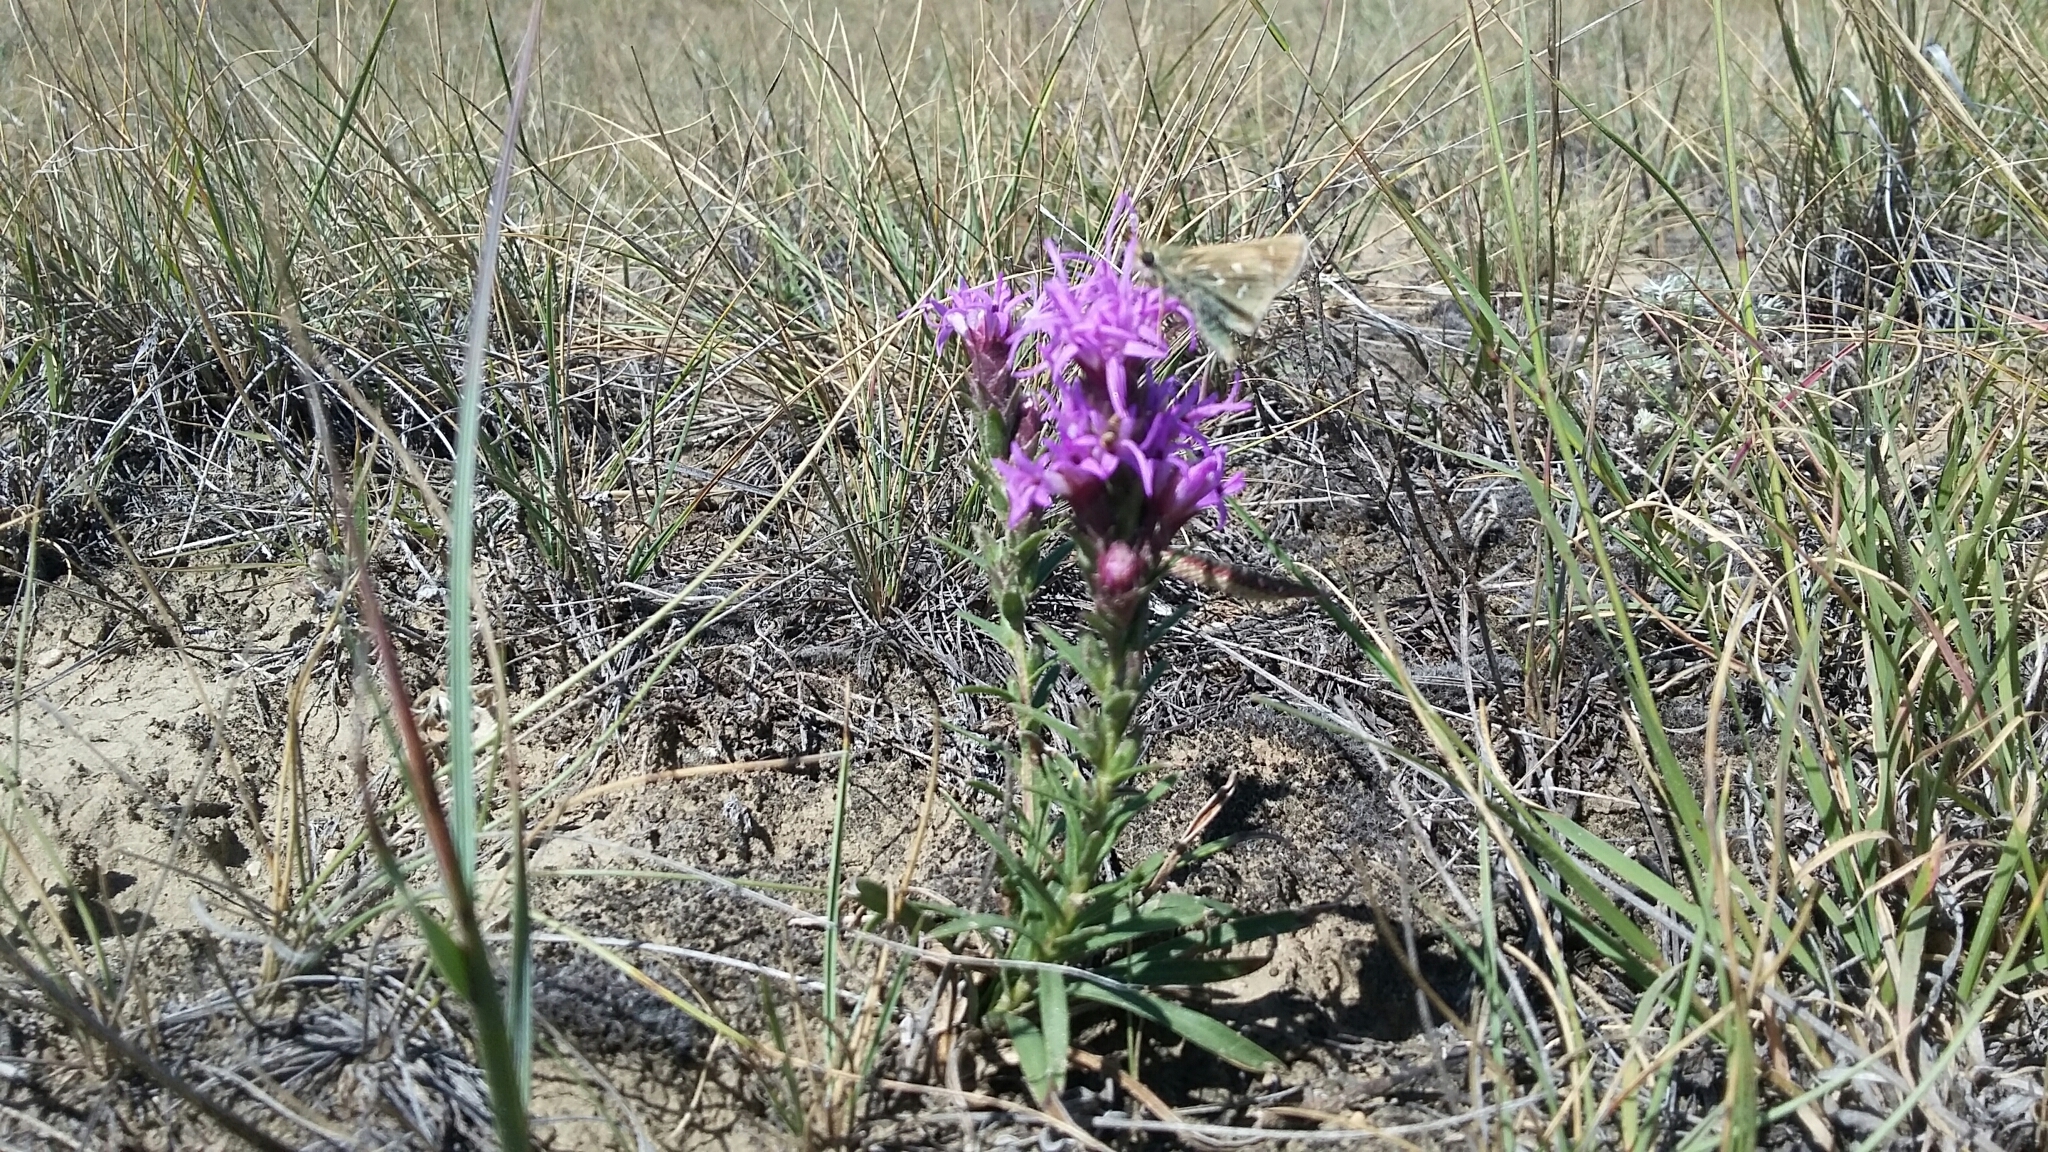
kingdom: Plantae
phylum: Tracheophyta
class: Magnoliopsida
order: Asterales
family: Asteraceae
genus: Liatris
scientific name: Liatris punctata
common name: Dotted gayfeather
